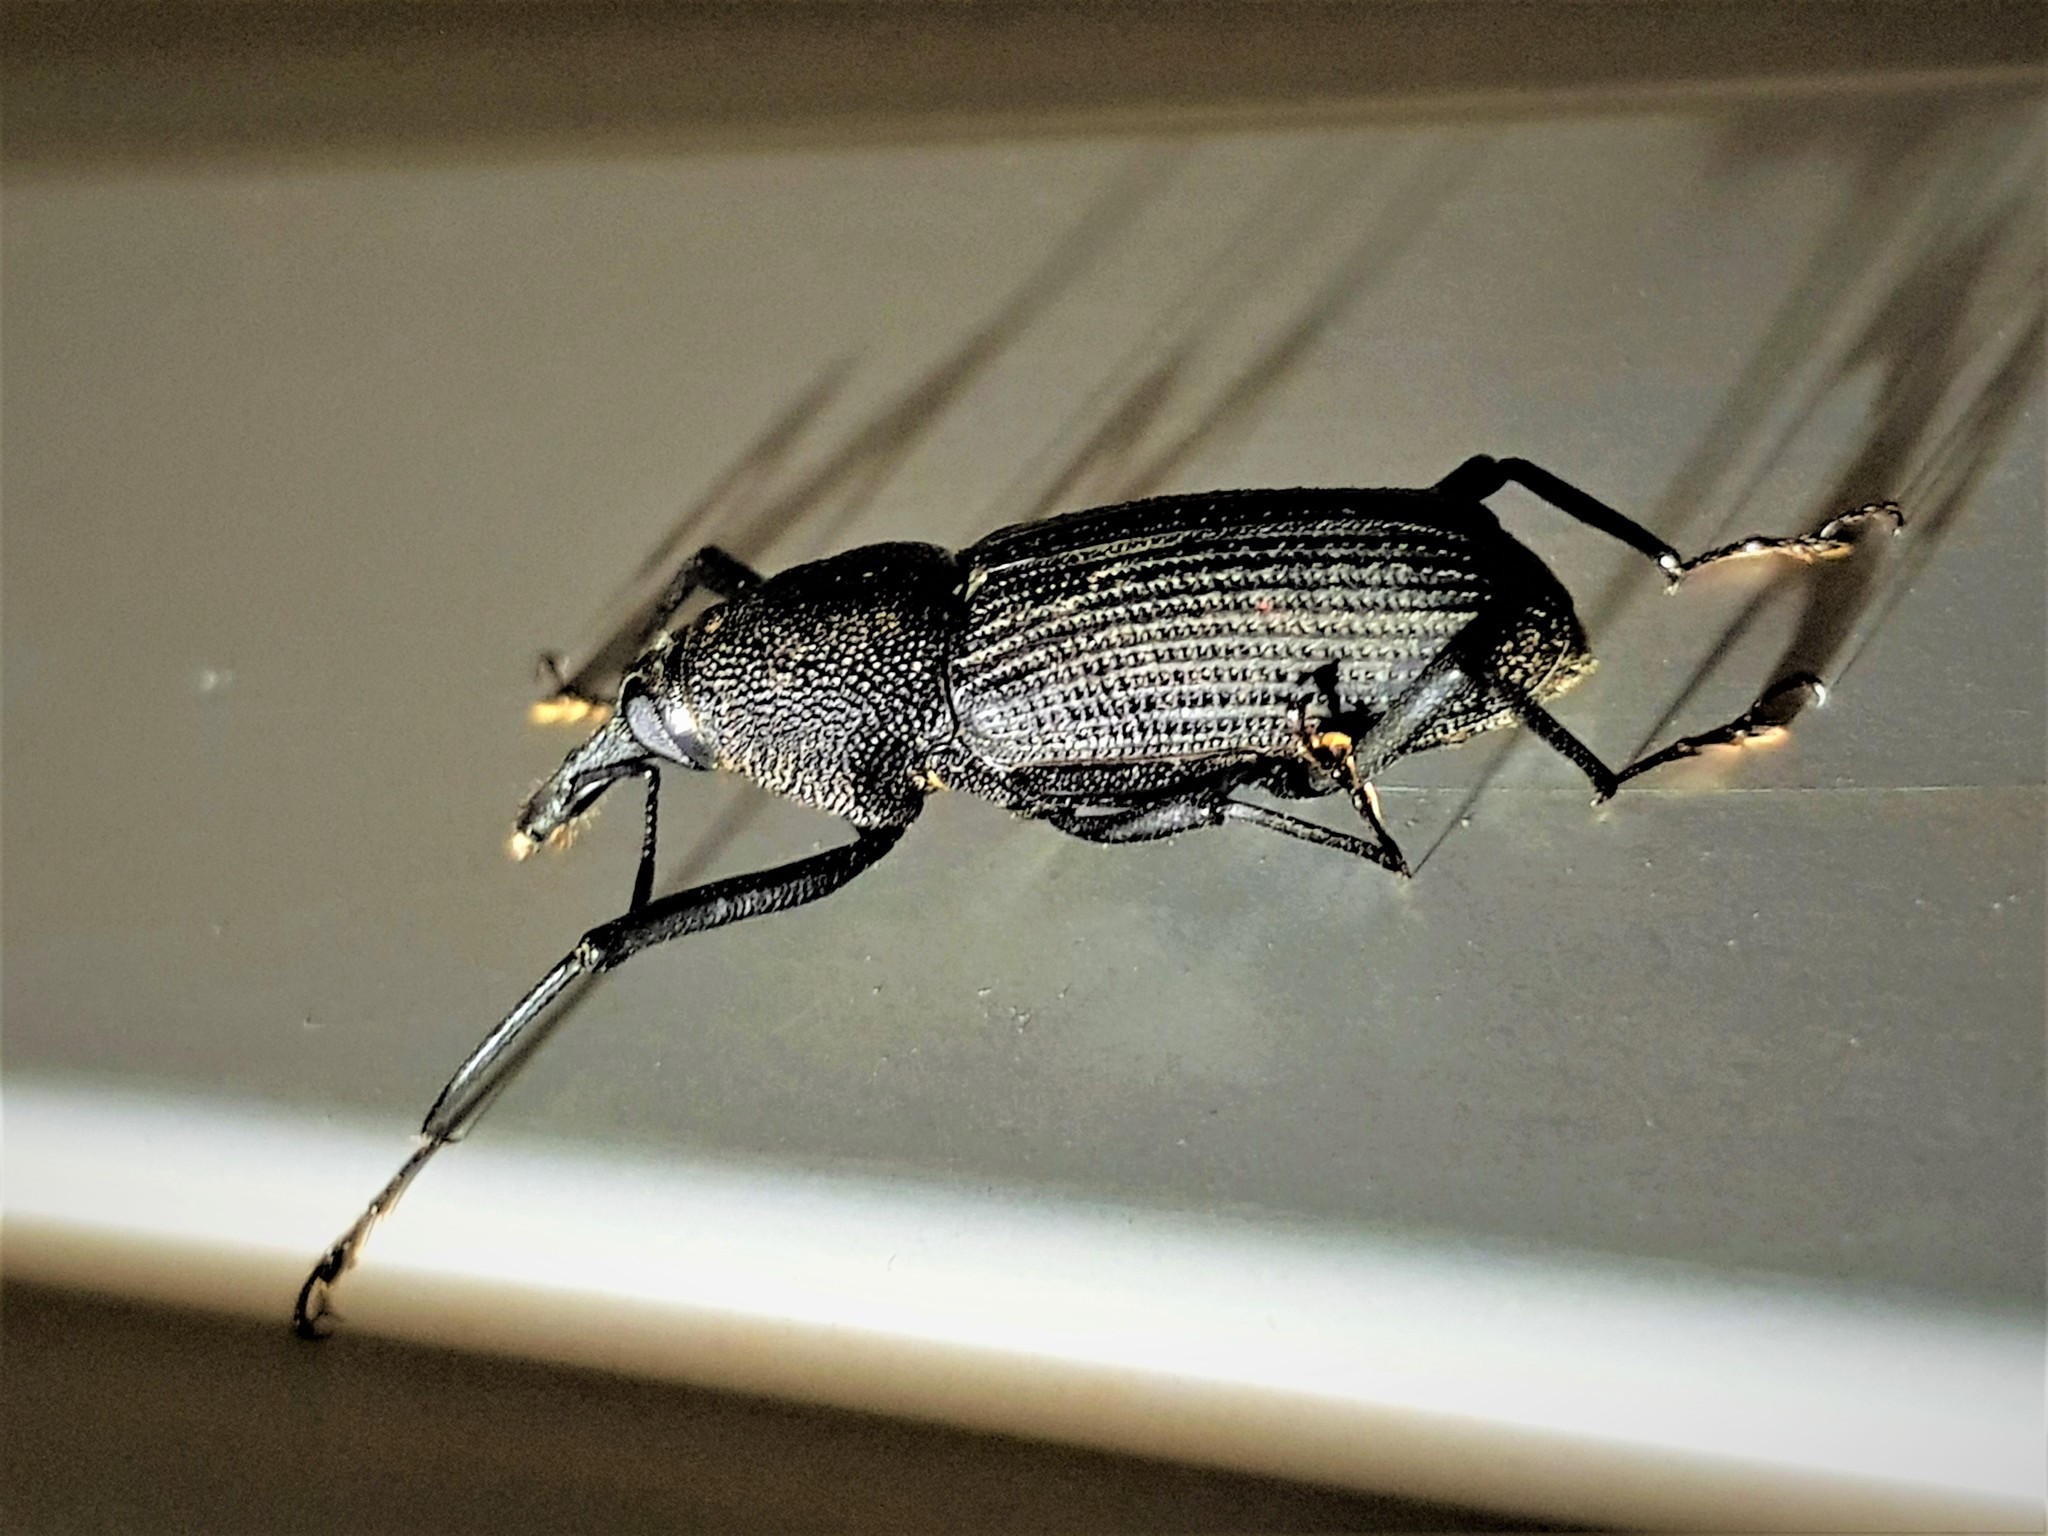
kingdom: Animalia
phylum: Arthropoda
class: Insecta
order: Coleoptera
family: Dryophthoridae
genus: Rhinostomus
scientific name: Rhinostomus barbirostris
